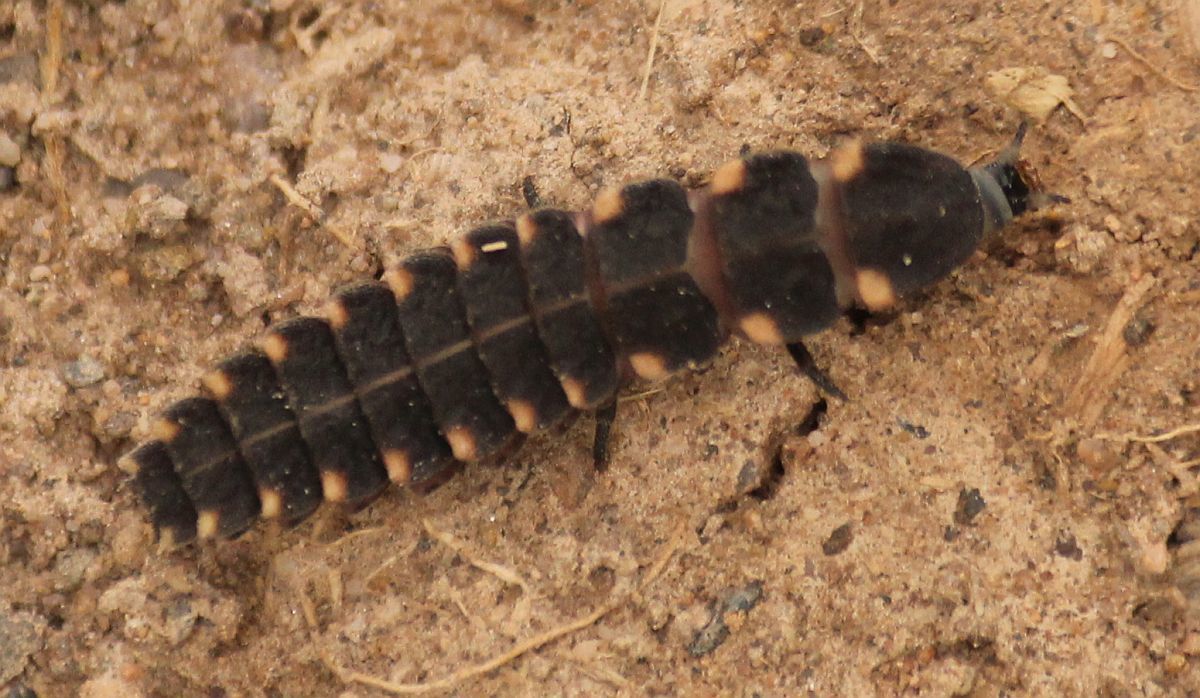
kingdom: Animalia
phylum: Arthropoda
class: Insecta
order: Coleoptera
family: Lampyridae
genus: Lampyris
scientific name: Lampyris noctiluca
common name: Glow-worm
